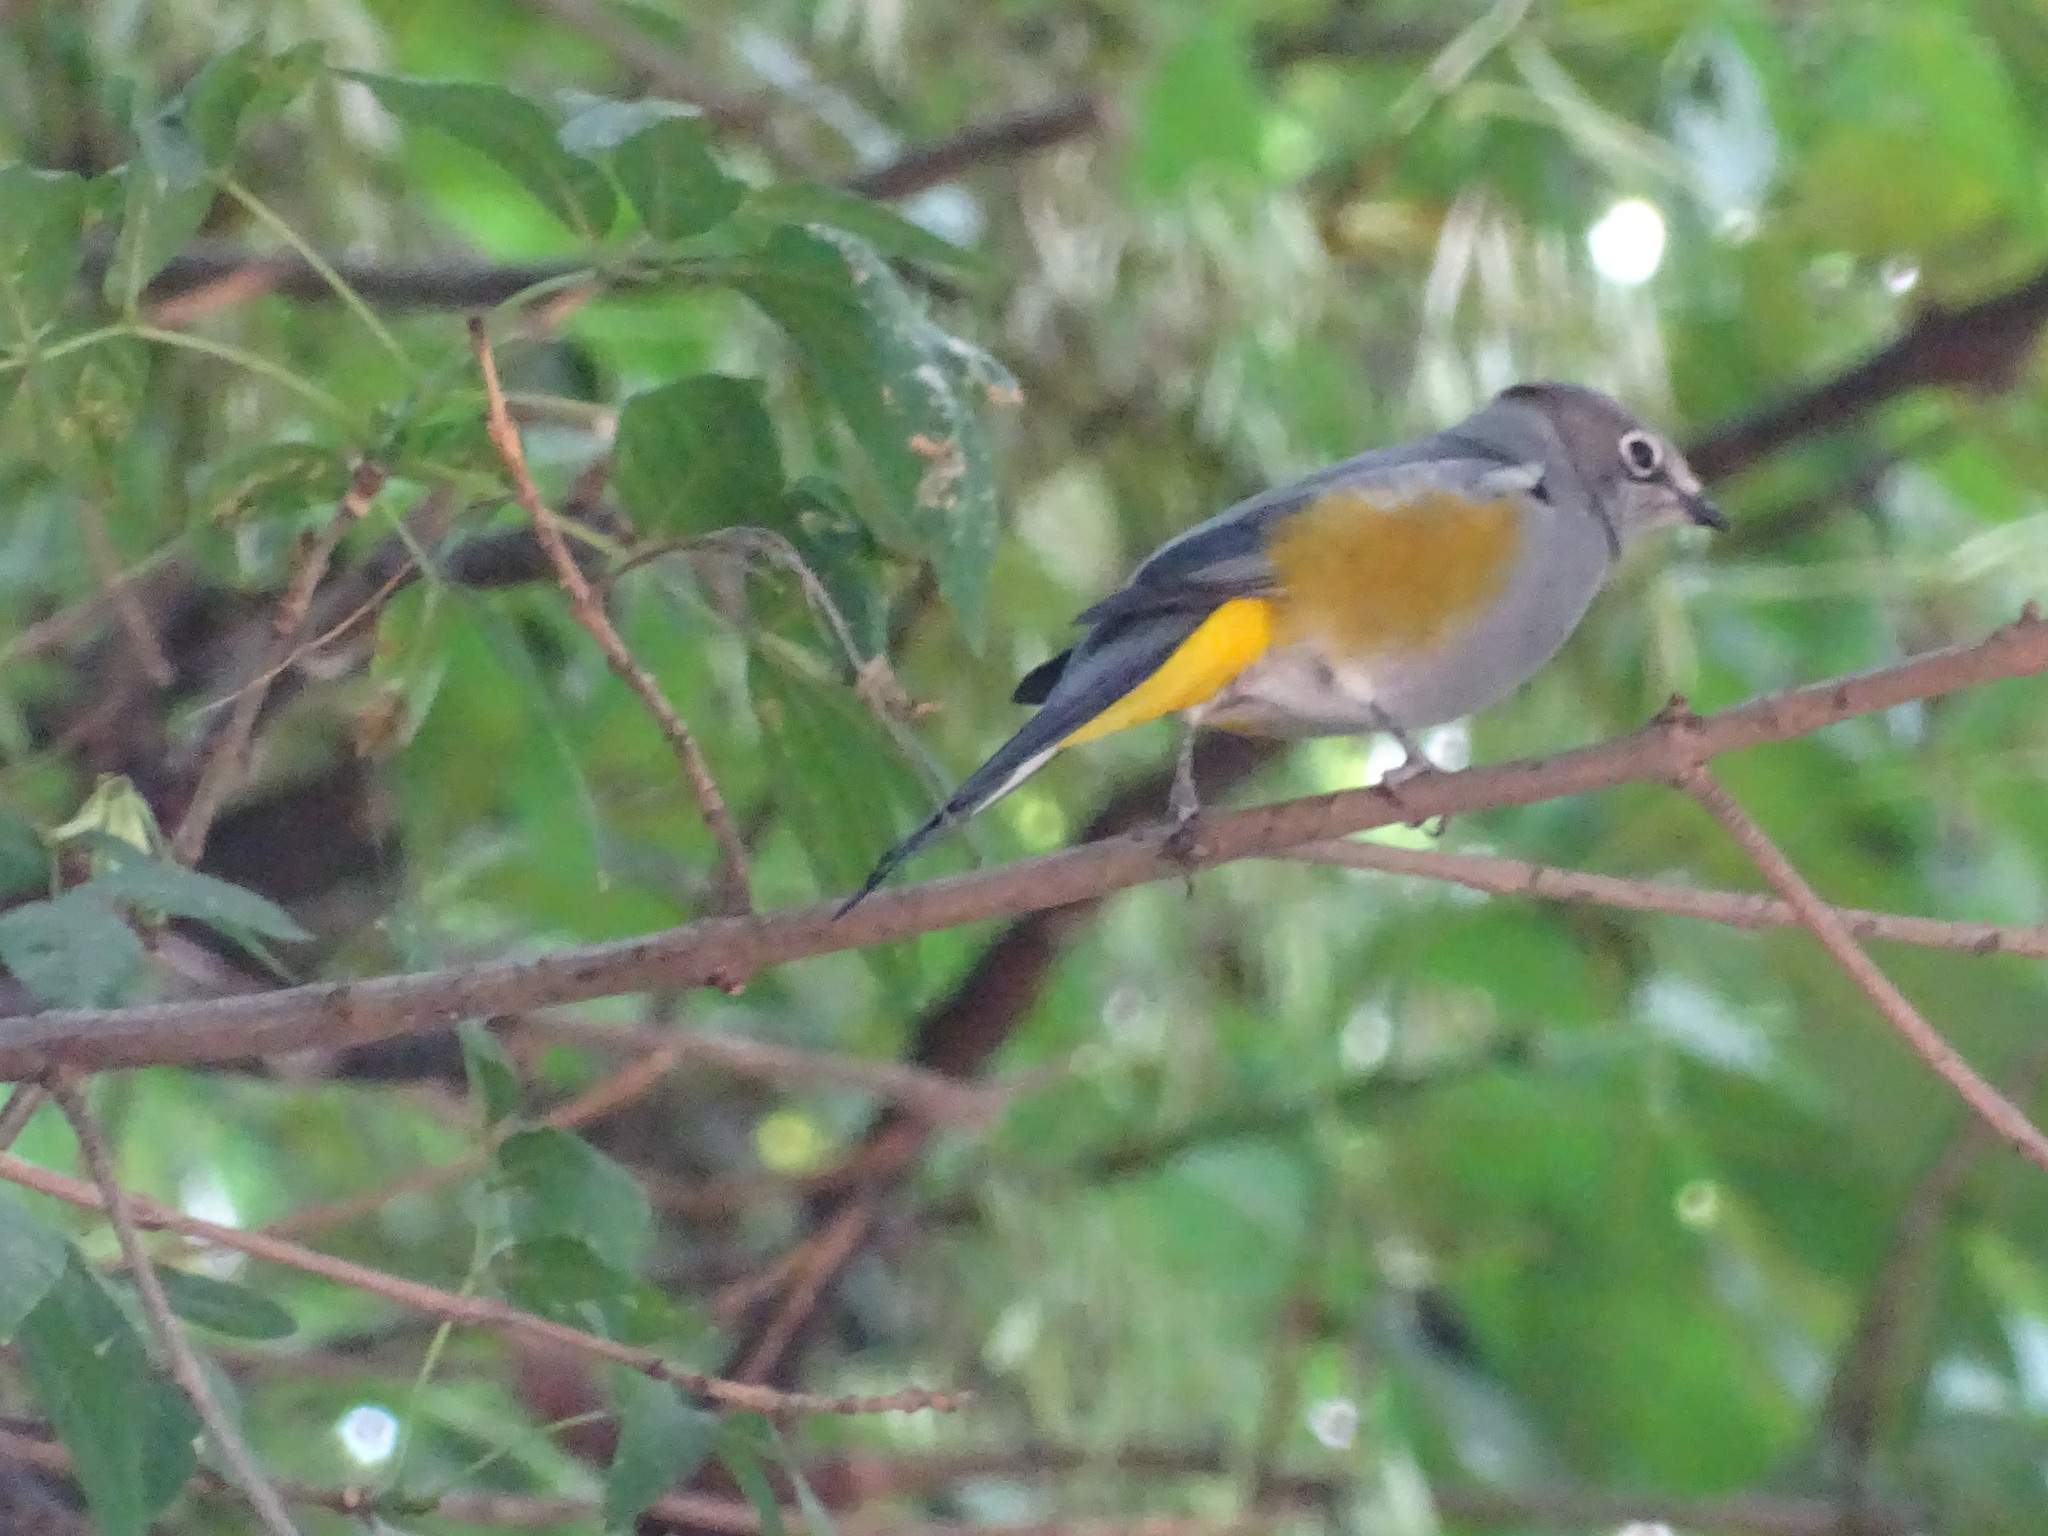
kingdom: Animalia
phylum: Chordata
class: Aves
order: Passeriformes
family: Ptilogonatidae
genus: Ptilogonys
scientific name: Ptilogonys cinereus
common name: Gray silky-flycatcher
